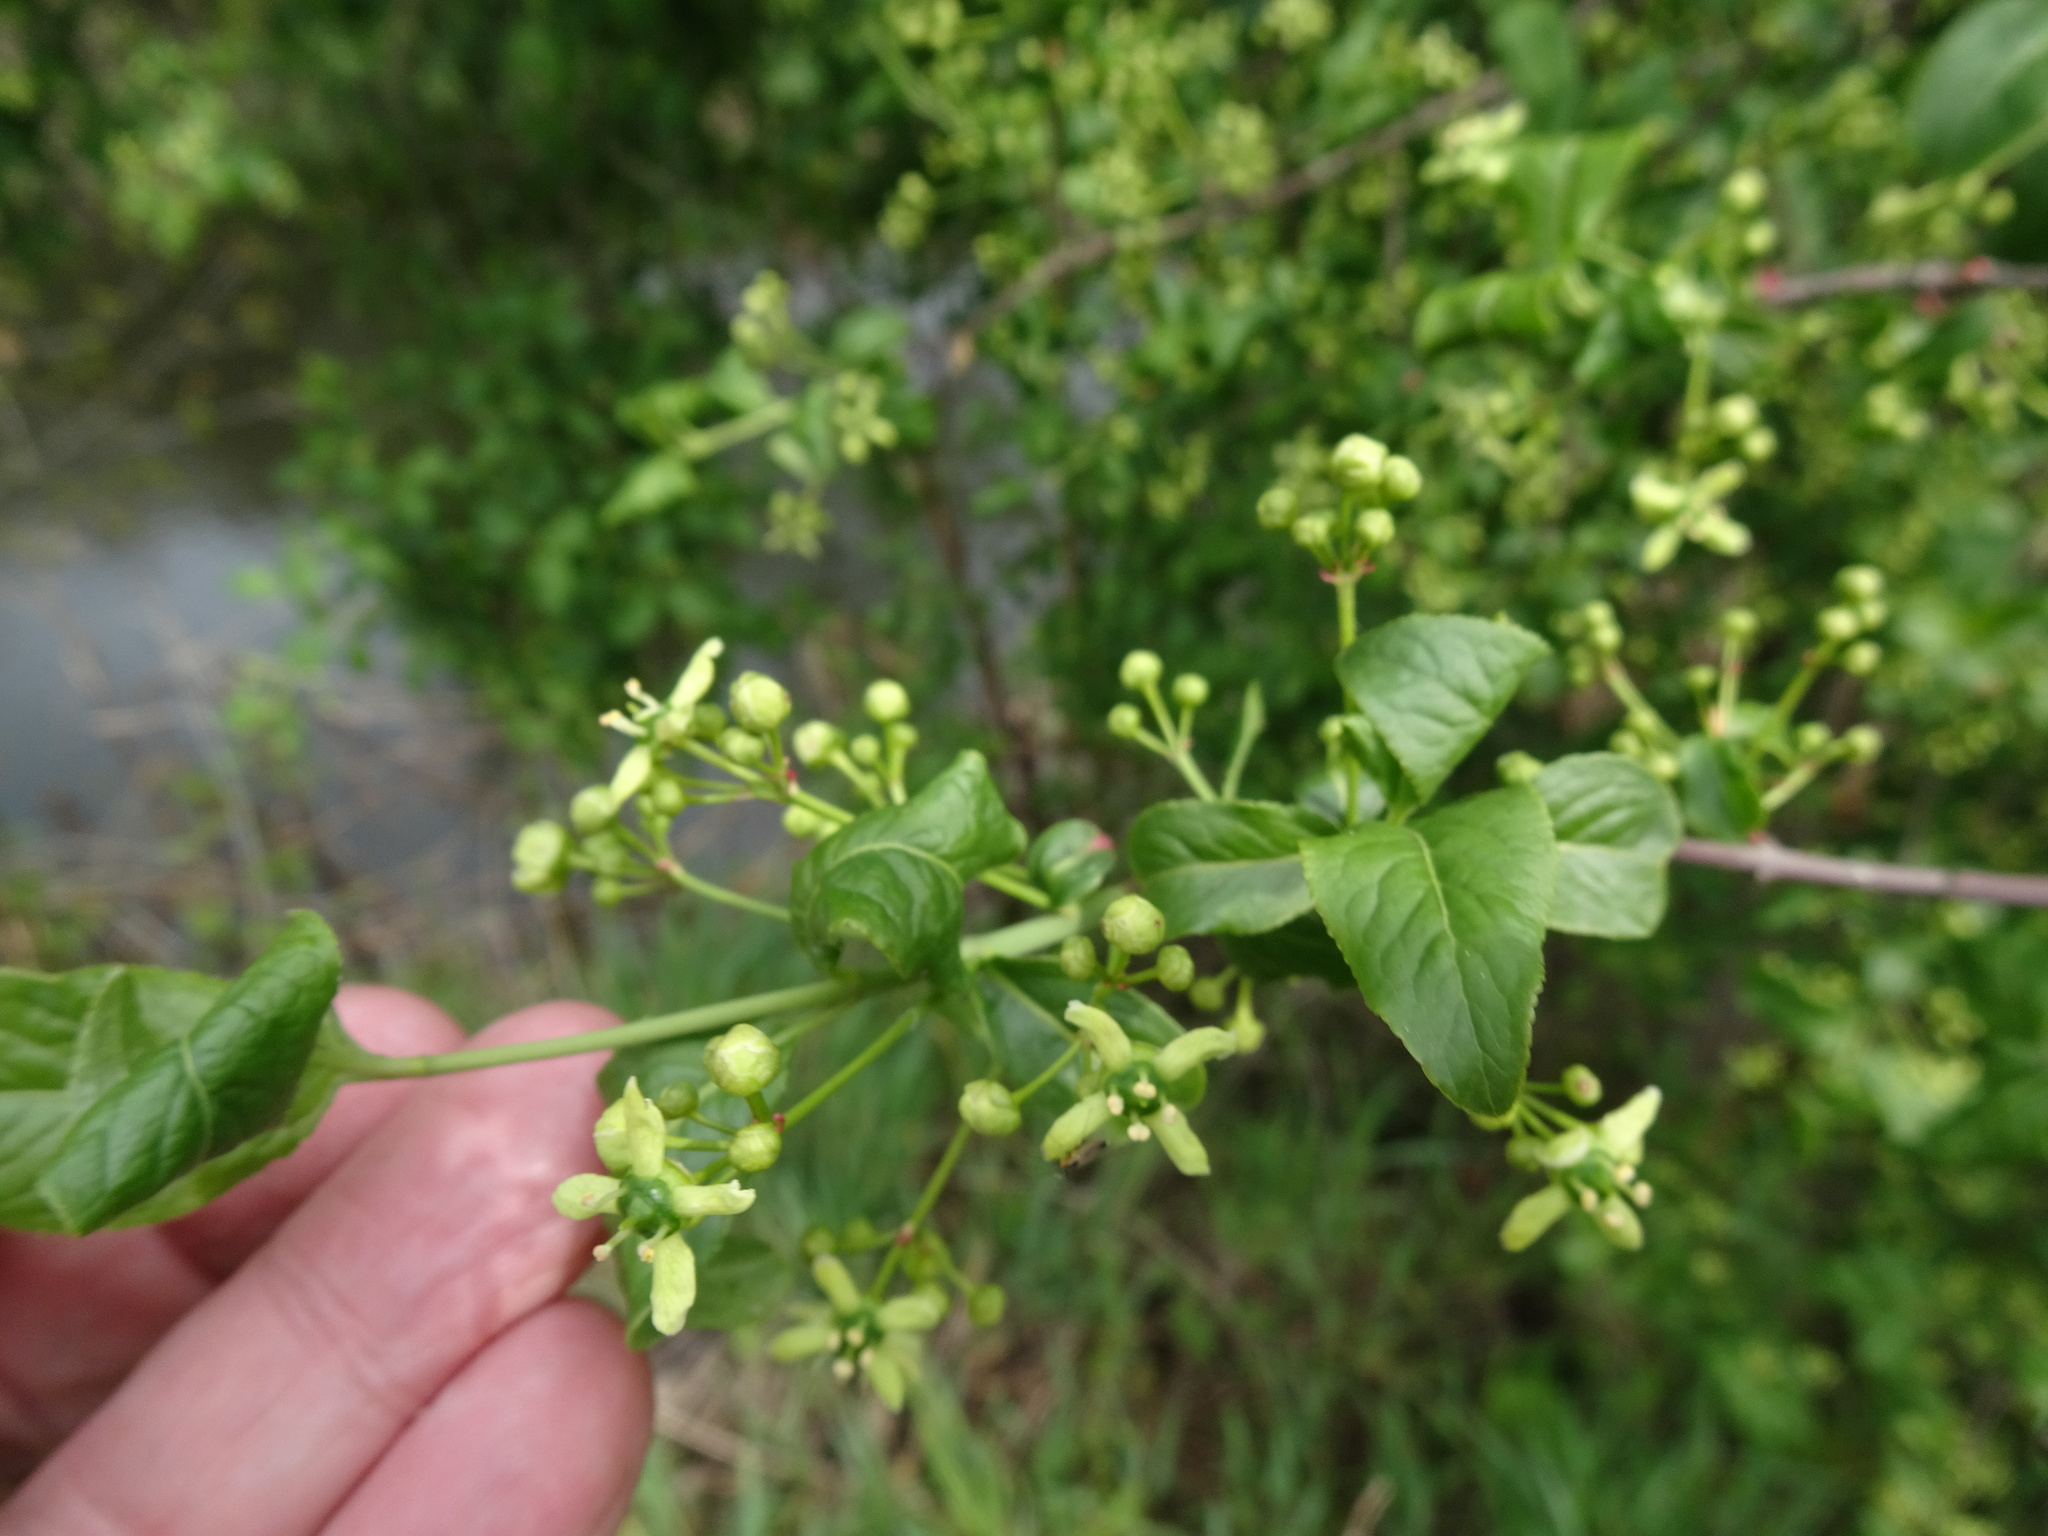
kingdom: Plantae
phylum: Tracheophyta
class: Magnoliopsida
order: Celastrales
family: Celastraceae
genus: Euonymus
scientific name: Euonymus europaeus
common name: Spindle
